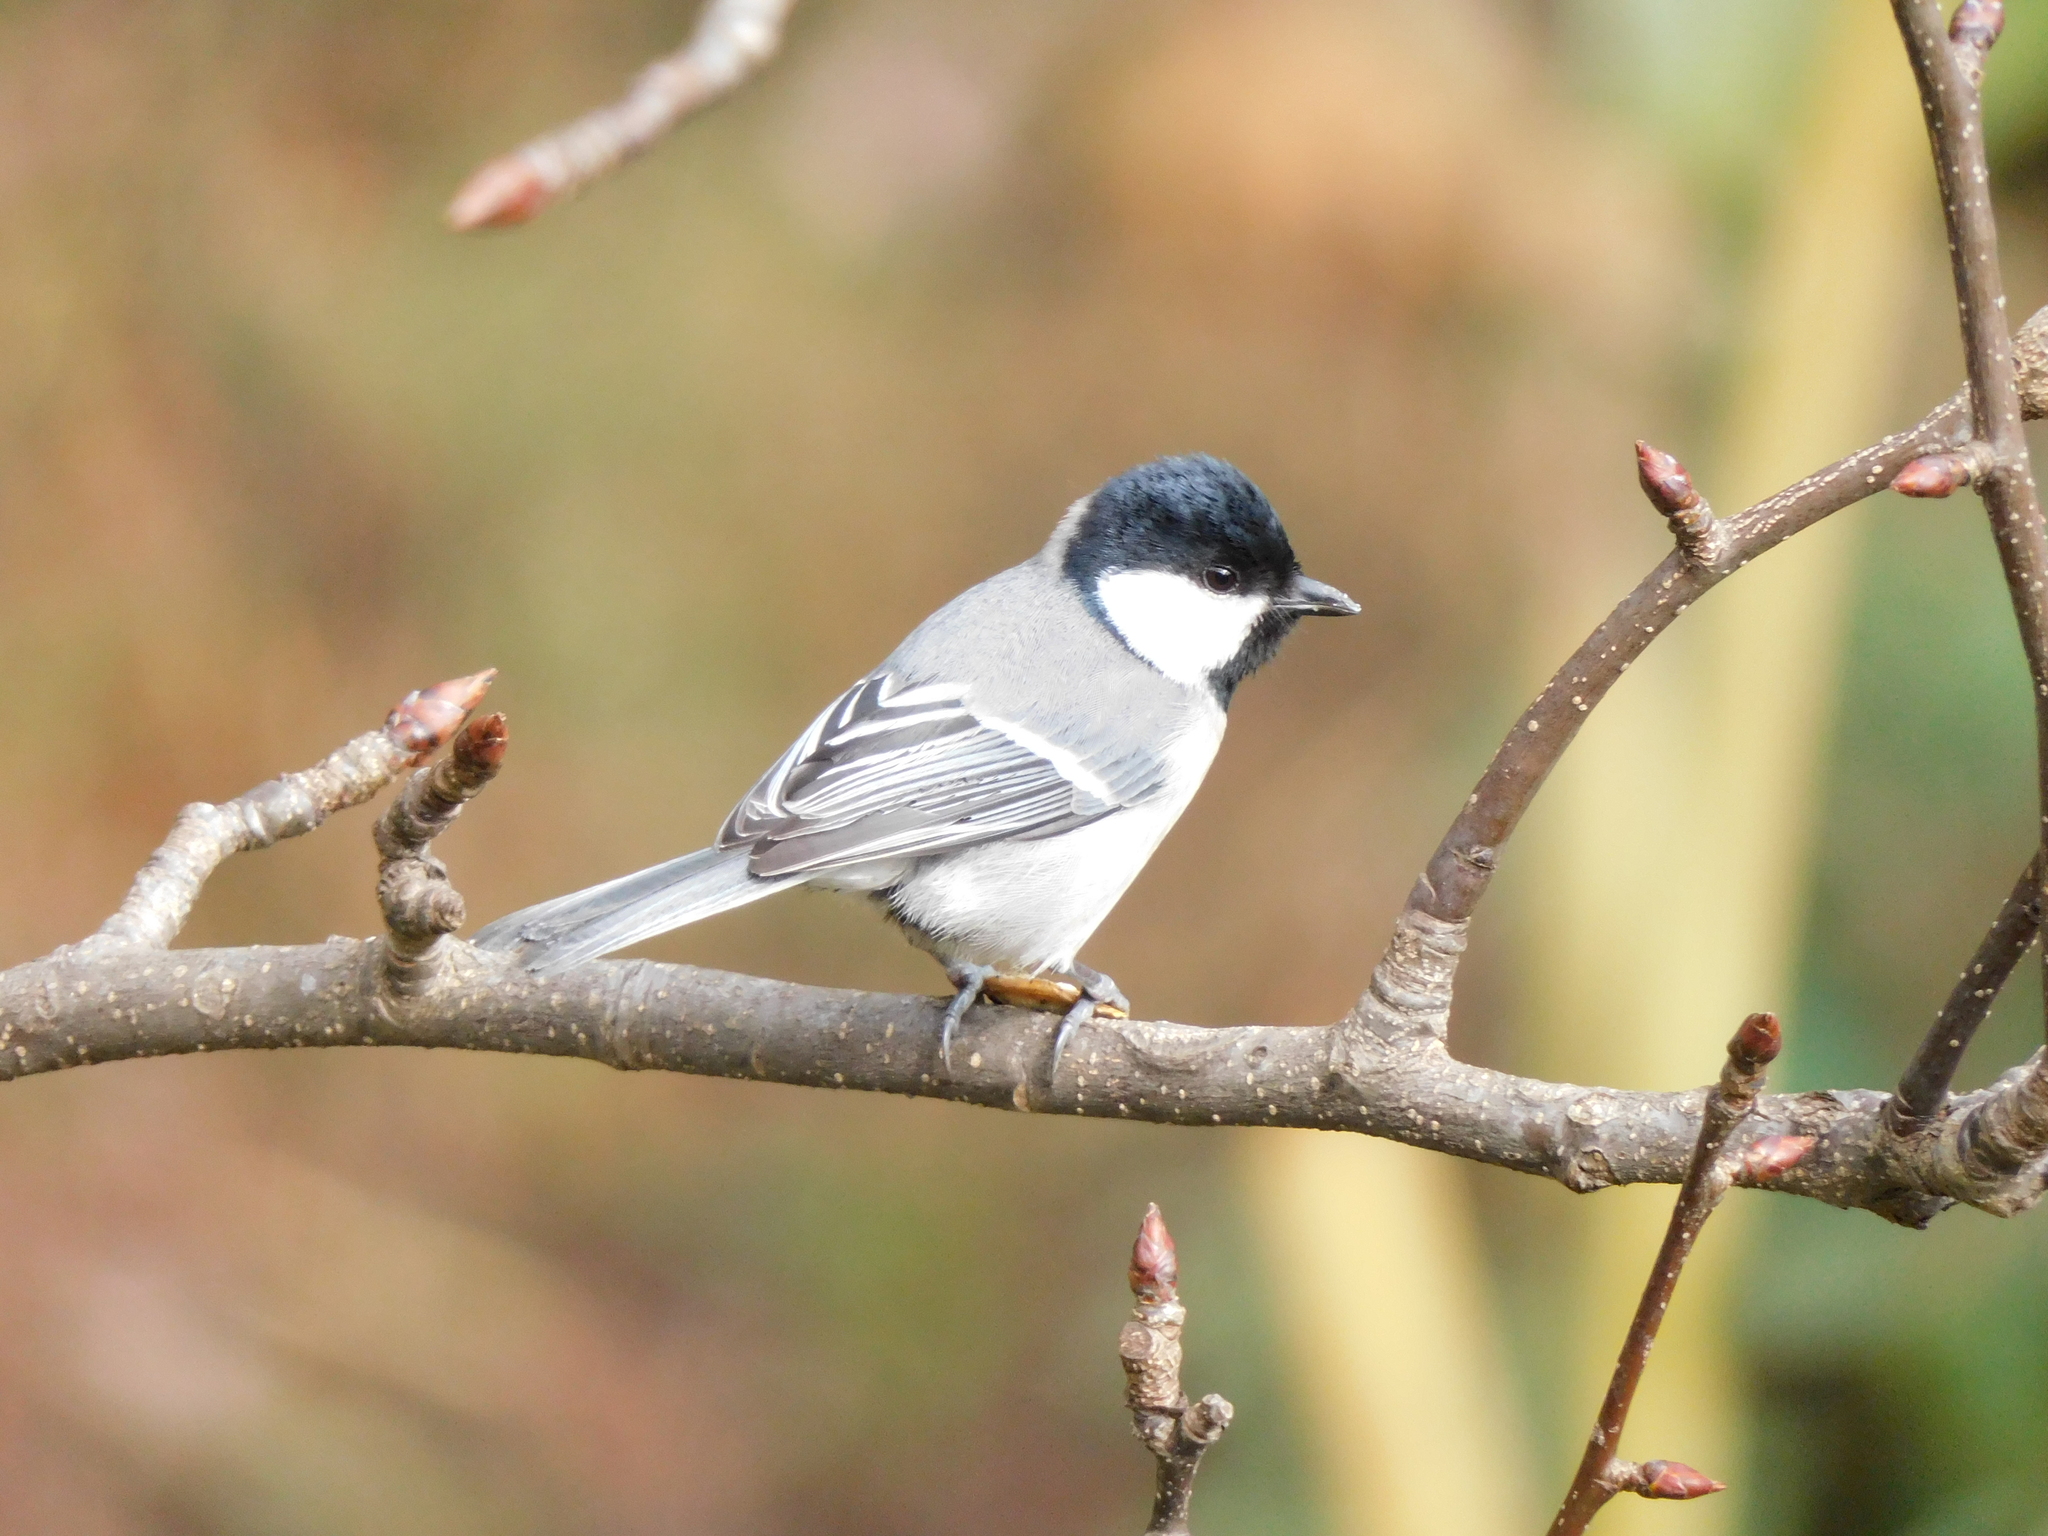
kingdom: Animalia
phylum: Chordata
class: Aves
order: Passeriformes
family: Paridae
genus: Parus
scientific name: Parus cinereus
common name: Cinereous tit
